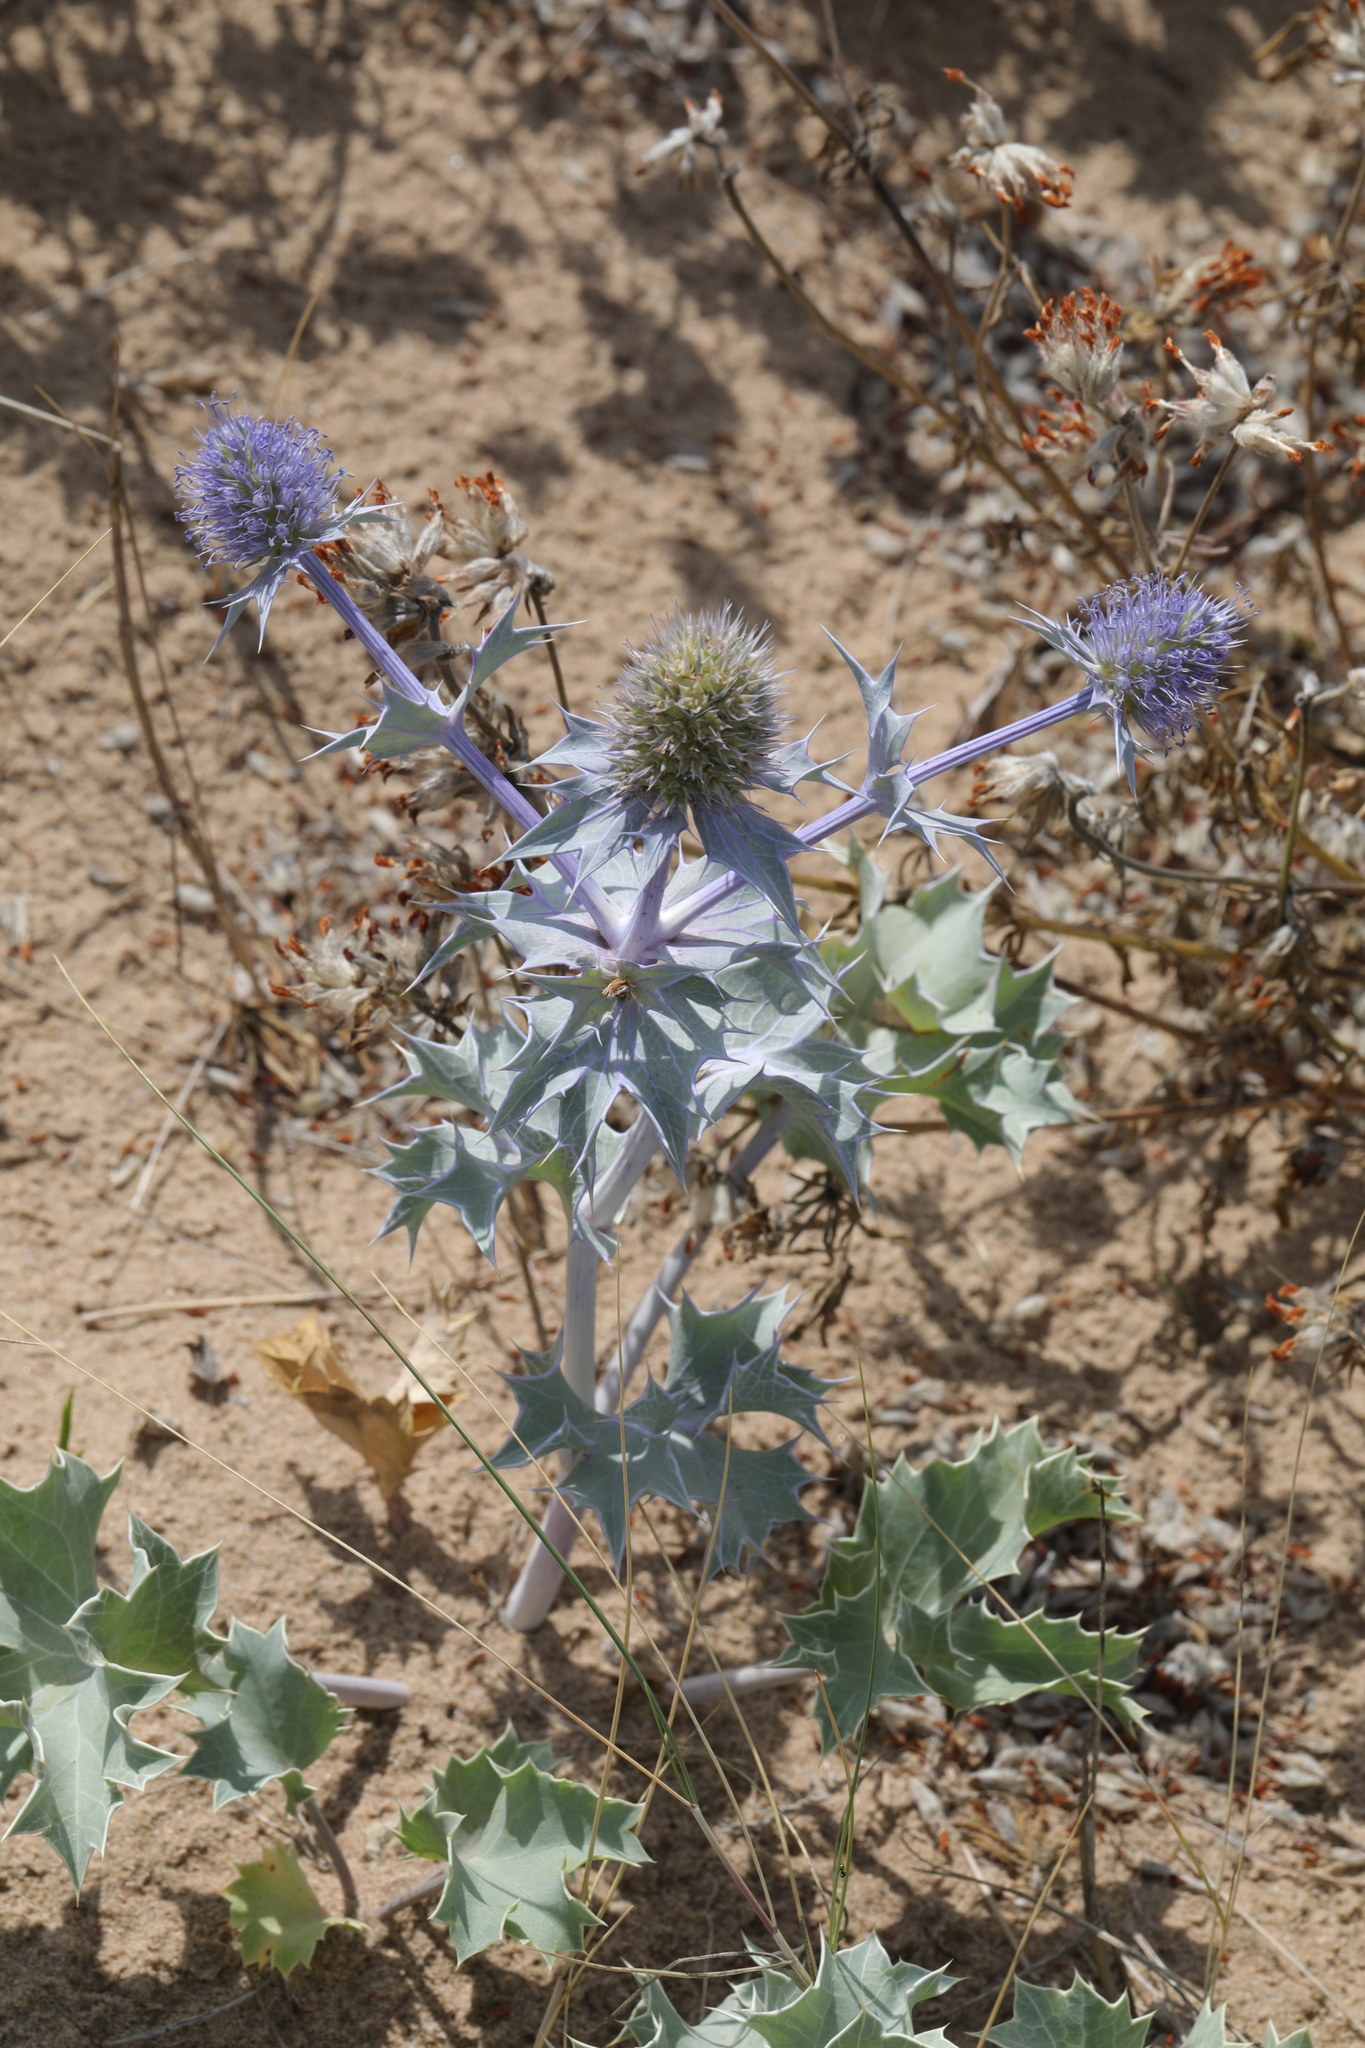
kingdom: Plantae
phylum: Tracheophyta
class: Magnoliopsida
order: Apiales
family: Apiaceae
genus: Eryngium
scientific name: Eryngium maritimum
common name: Sea-holly
